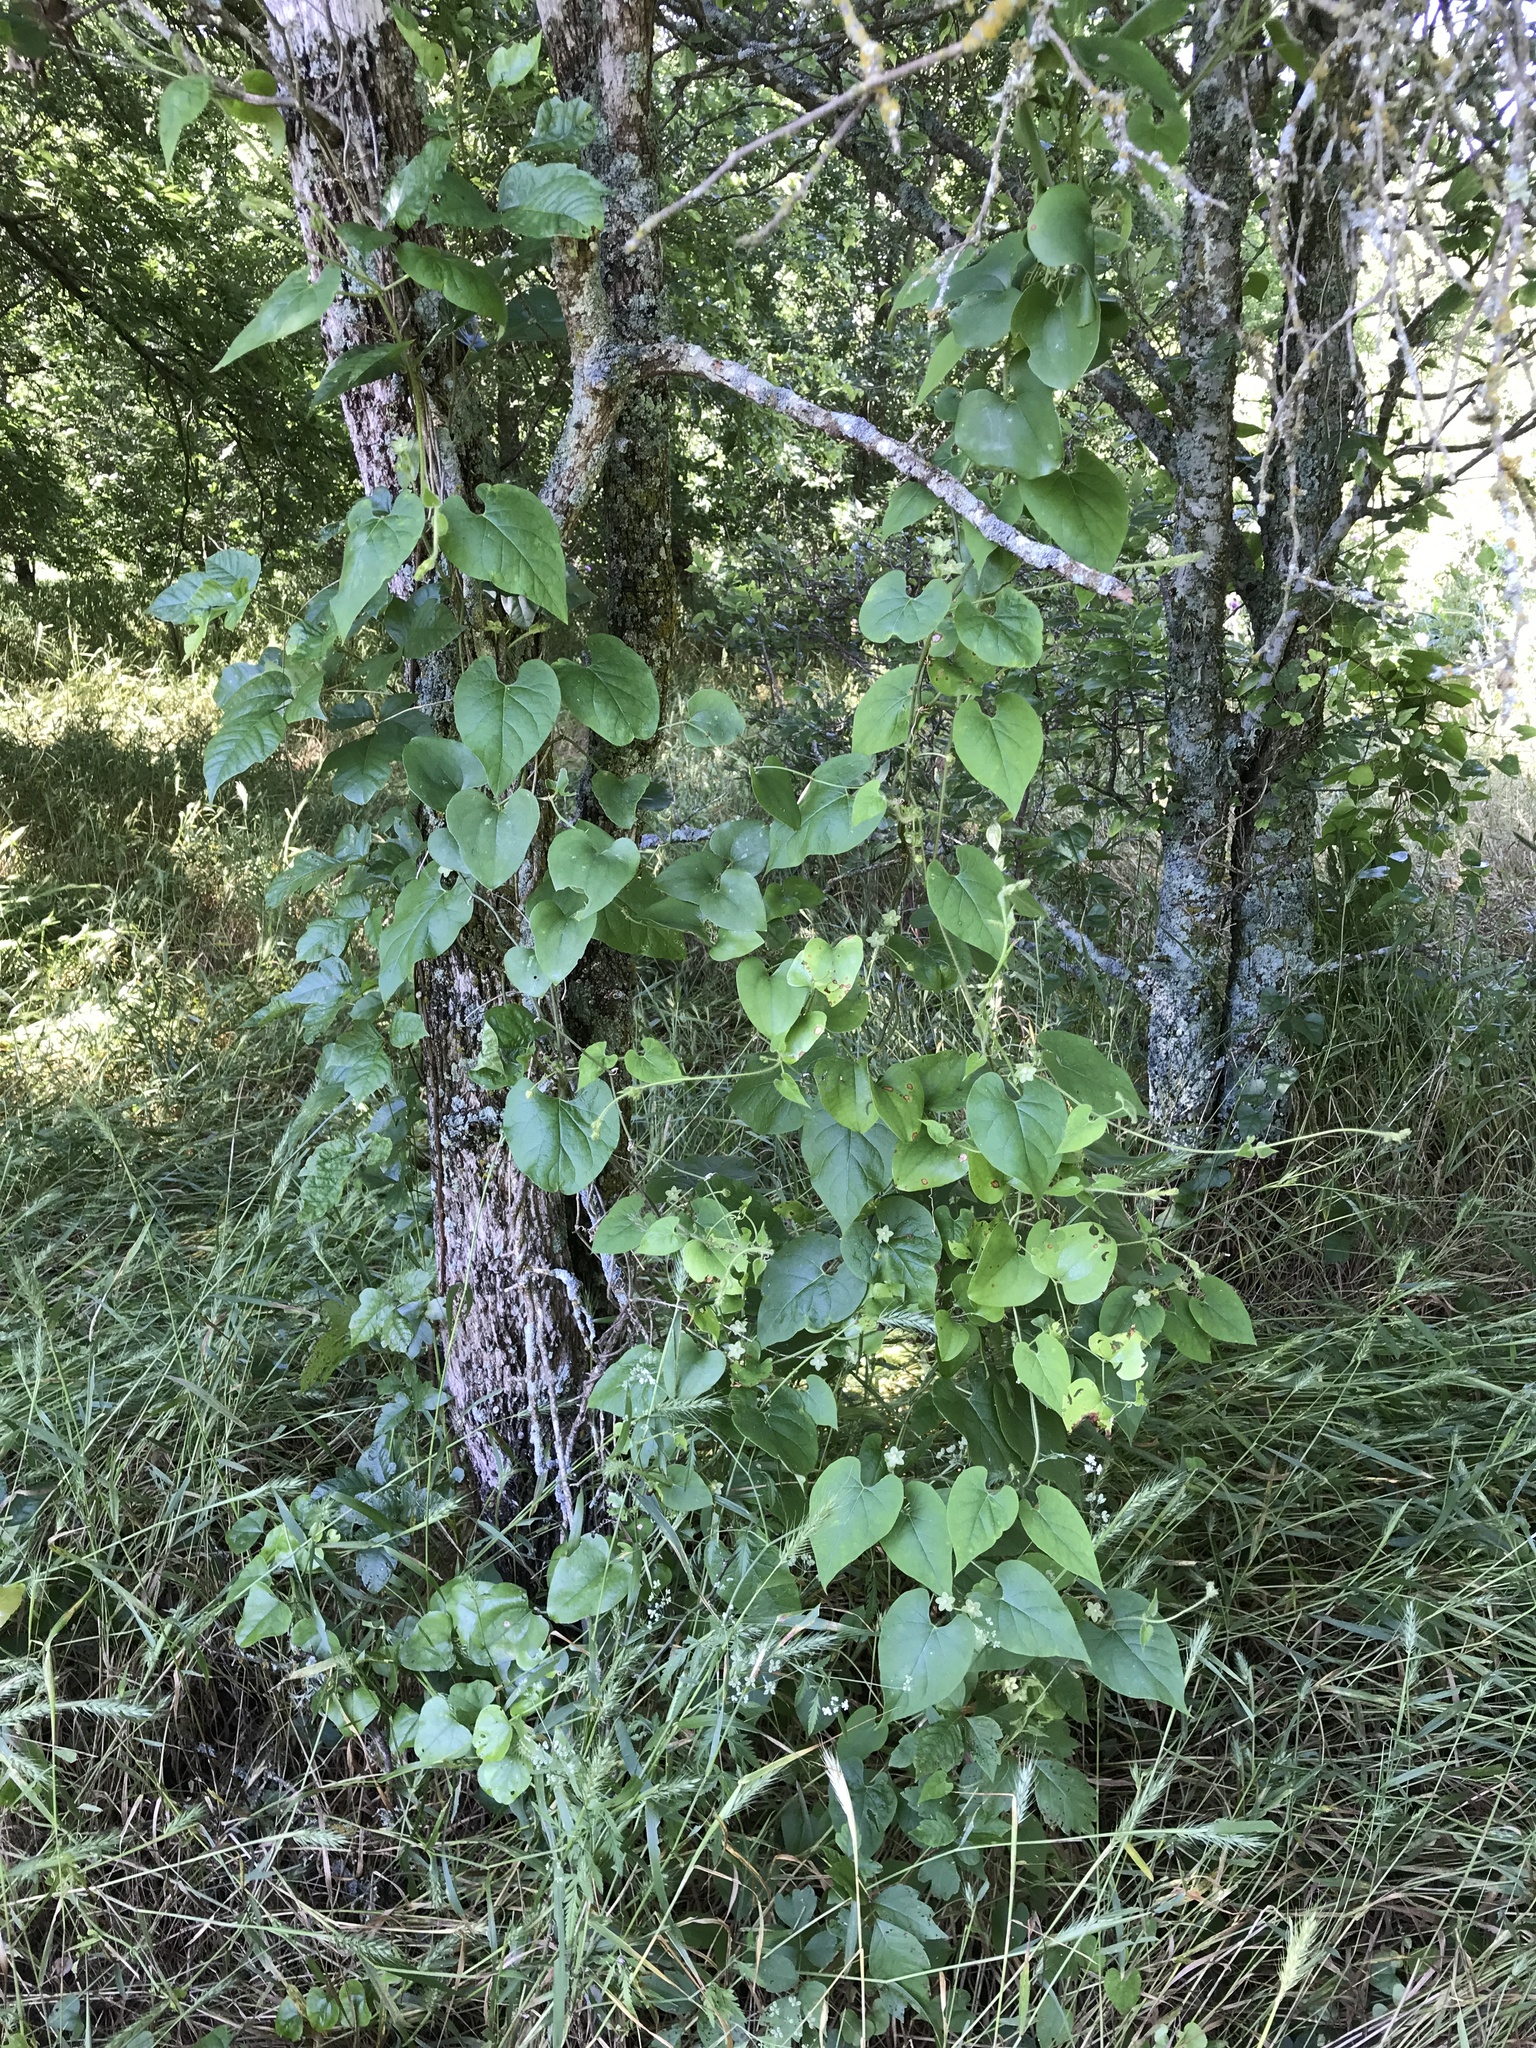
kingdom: Plantae
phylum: Tracheophyta
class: Magnoliopsida
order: Gentianales
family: Apocynaceae
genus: Dictyanthus
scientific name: Dictyanthus reticulatus
